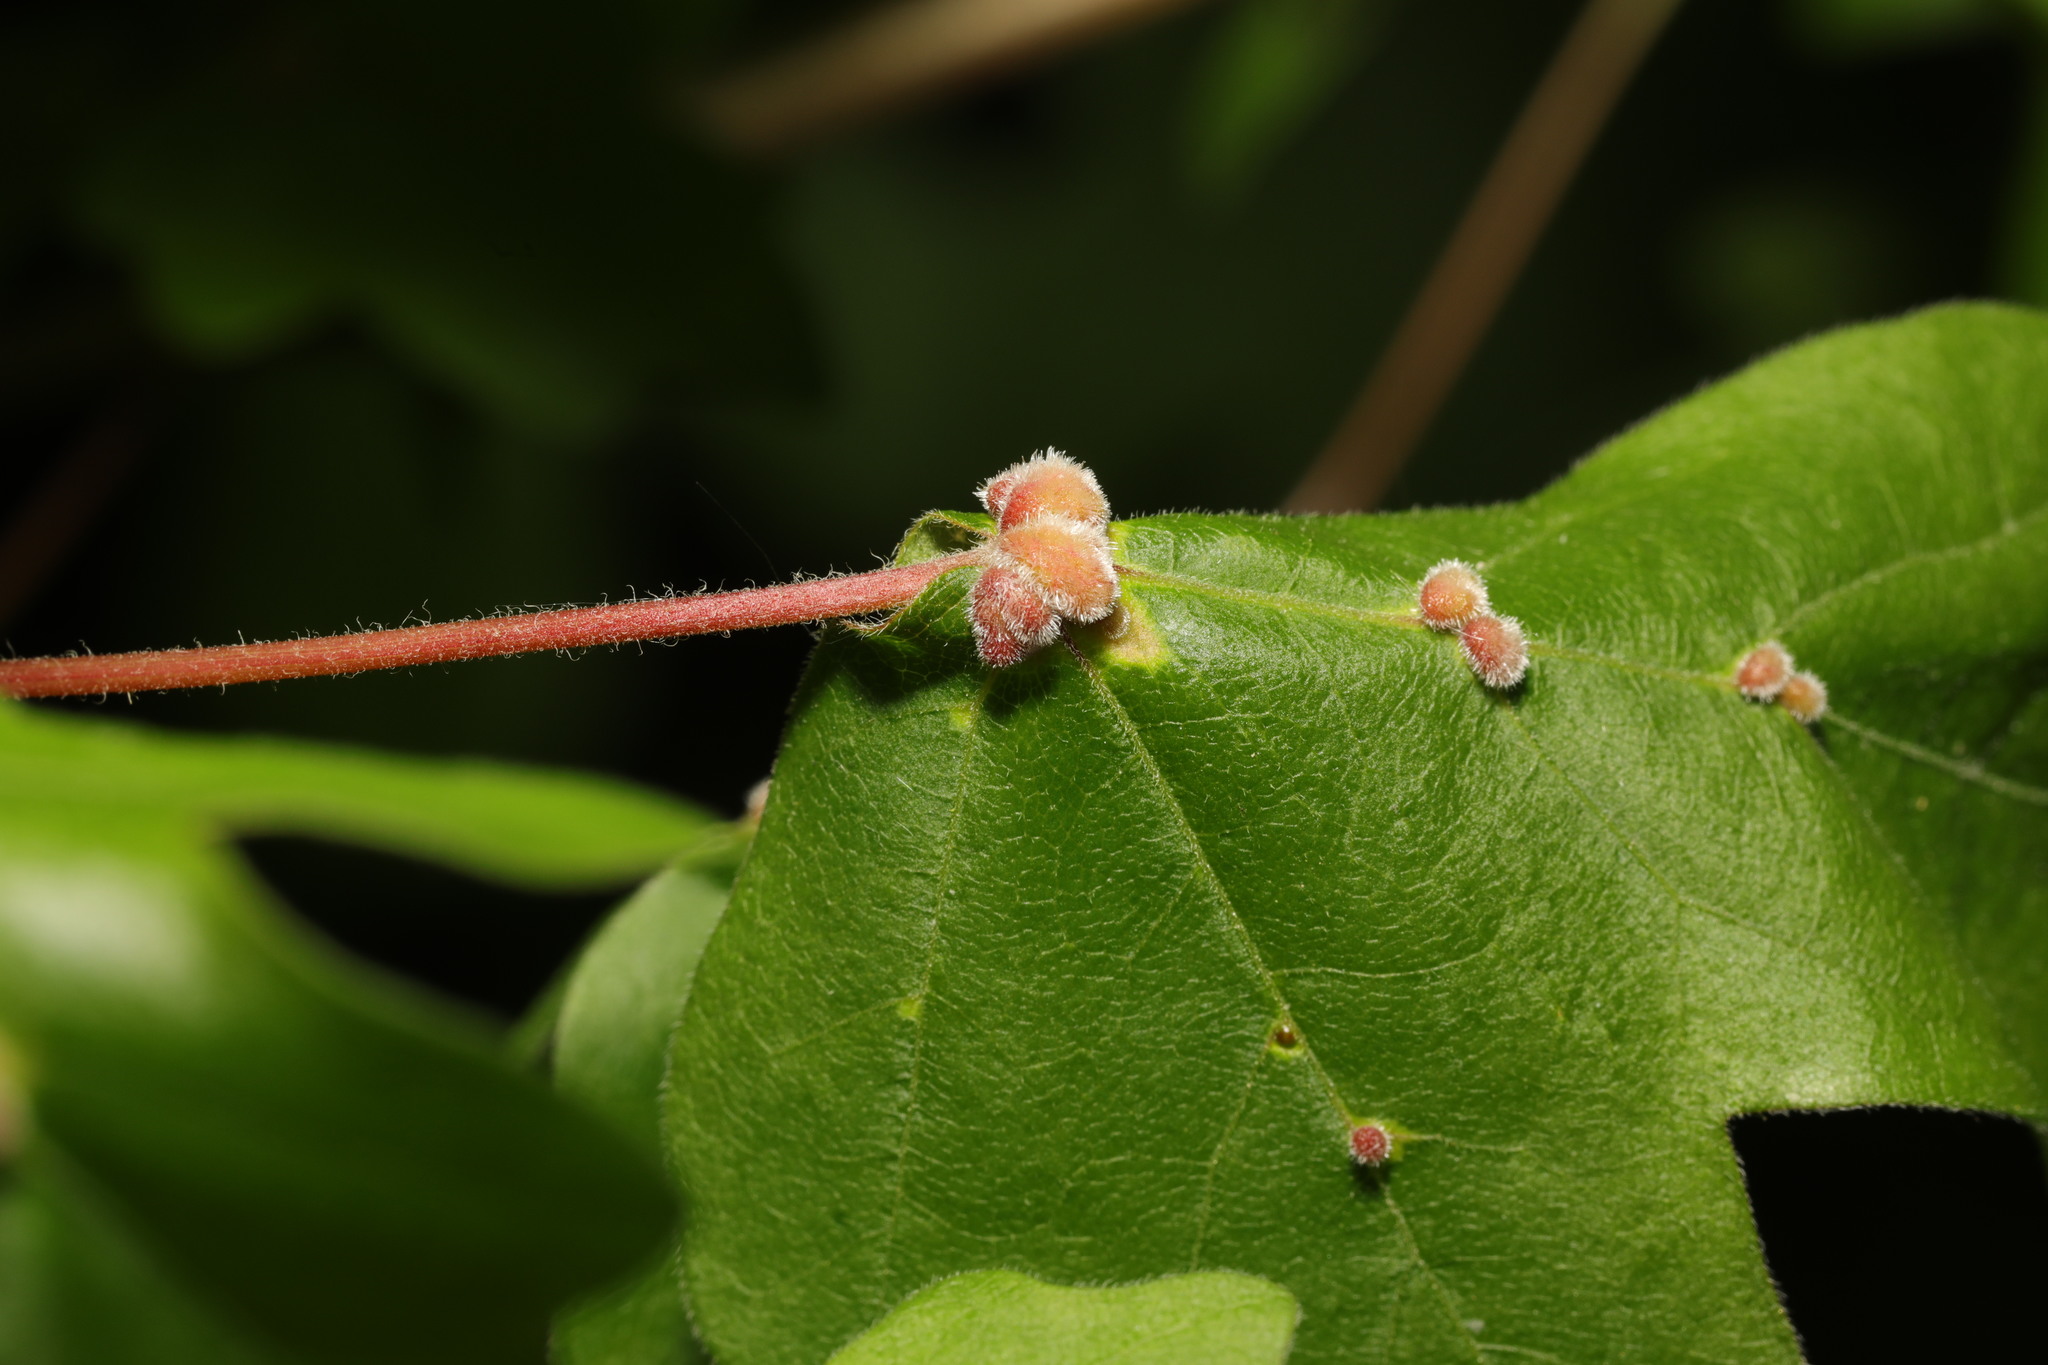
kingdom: Animalia
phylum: Arthropoda
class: Arachnida
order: Trombidiformes
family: Eriophyidae
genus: Aceria
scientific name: Aceria macrochelus
